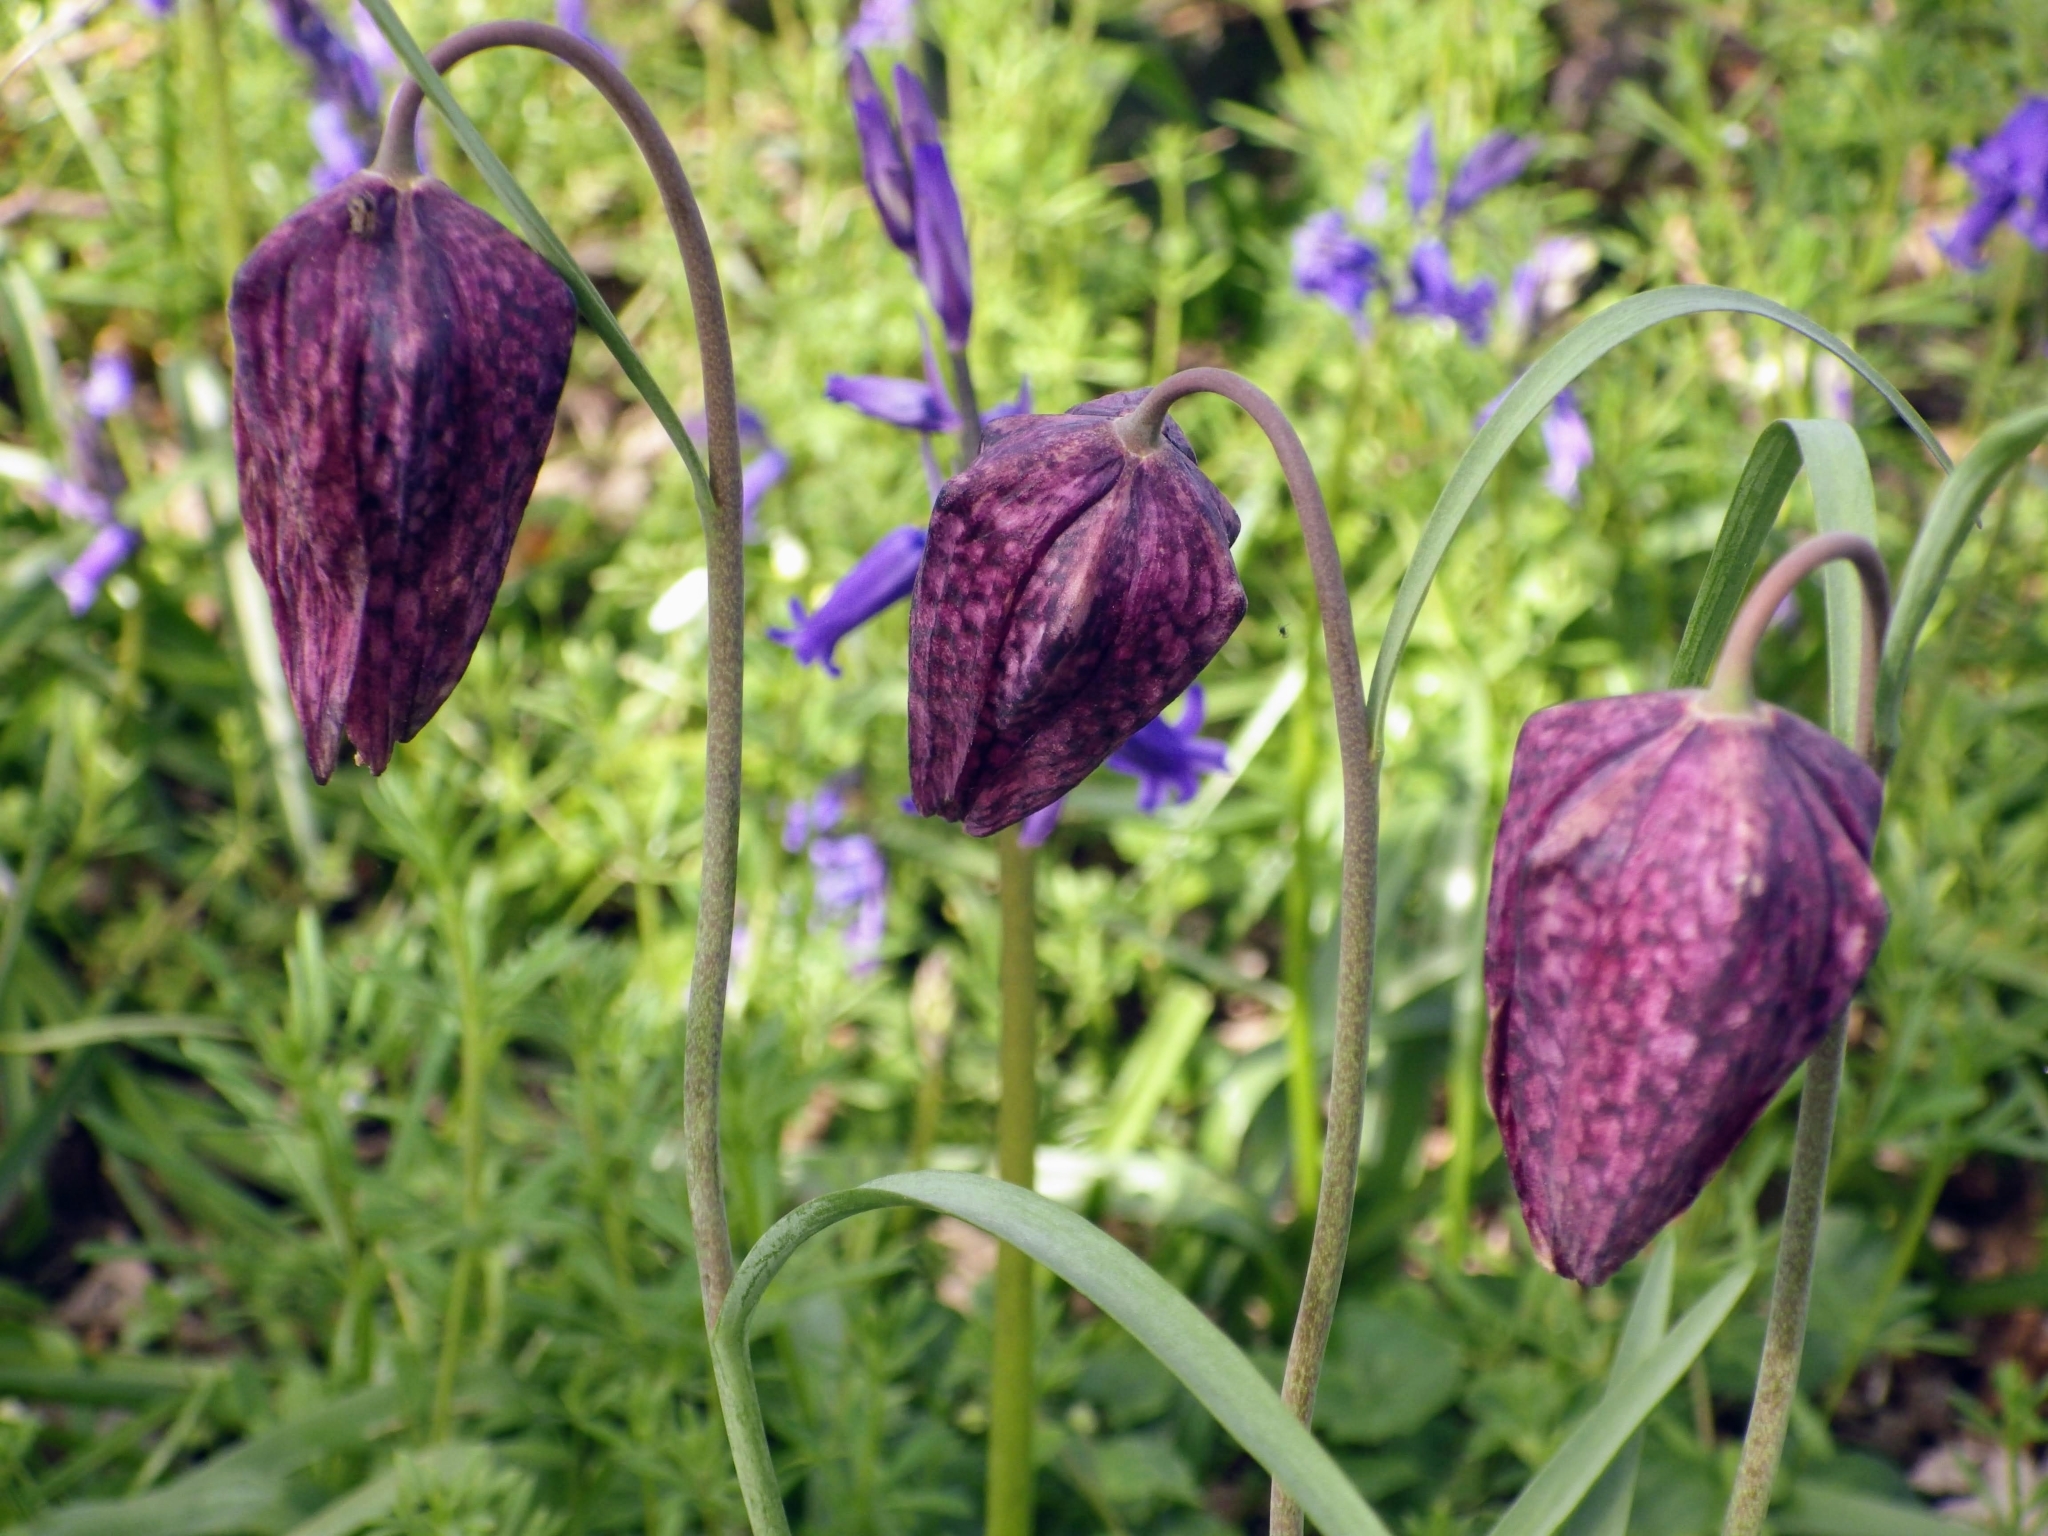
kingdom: Plantae
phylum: Tracheophyta
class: Liliopsida
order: Liliales
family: Liliaceae
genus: Fritillaria
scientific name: Fritillaria meleagris
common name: Fritillary
